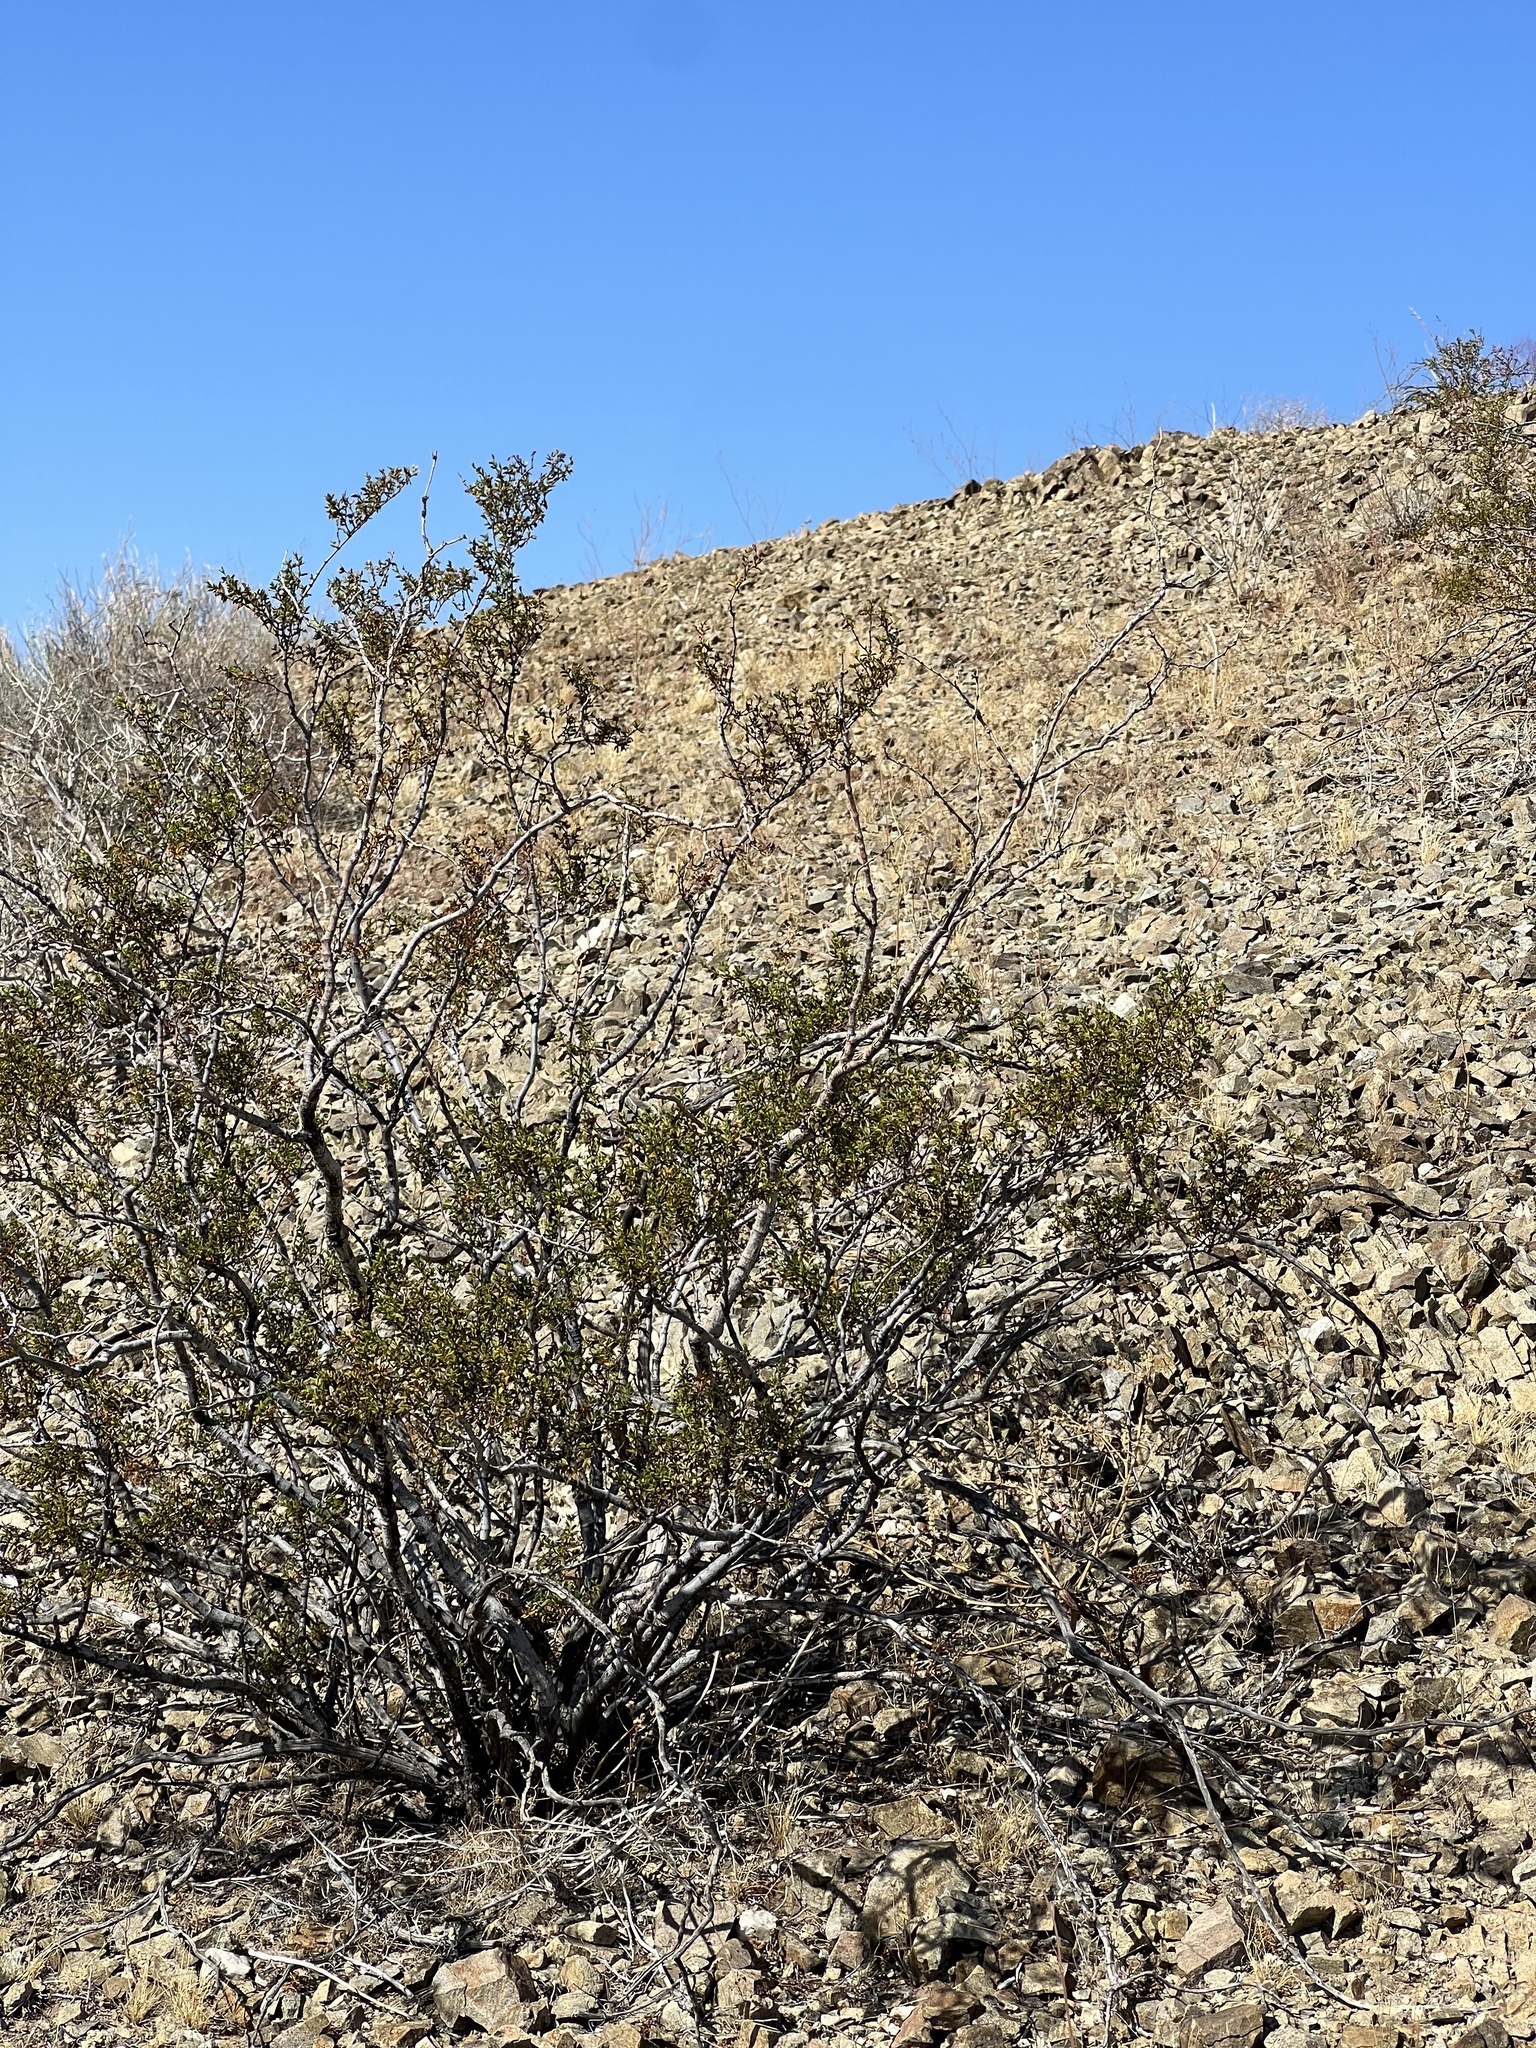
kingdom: Plantae
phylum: Tracheophyta
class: Magnoliopsida
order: Zygophyllales
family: Zygophyllaceae
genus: Larrea
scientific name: Larrea tridentata
